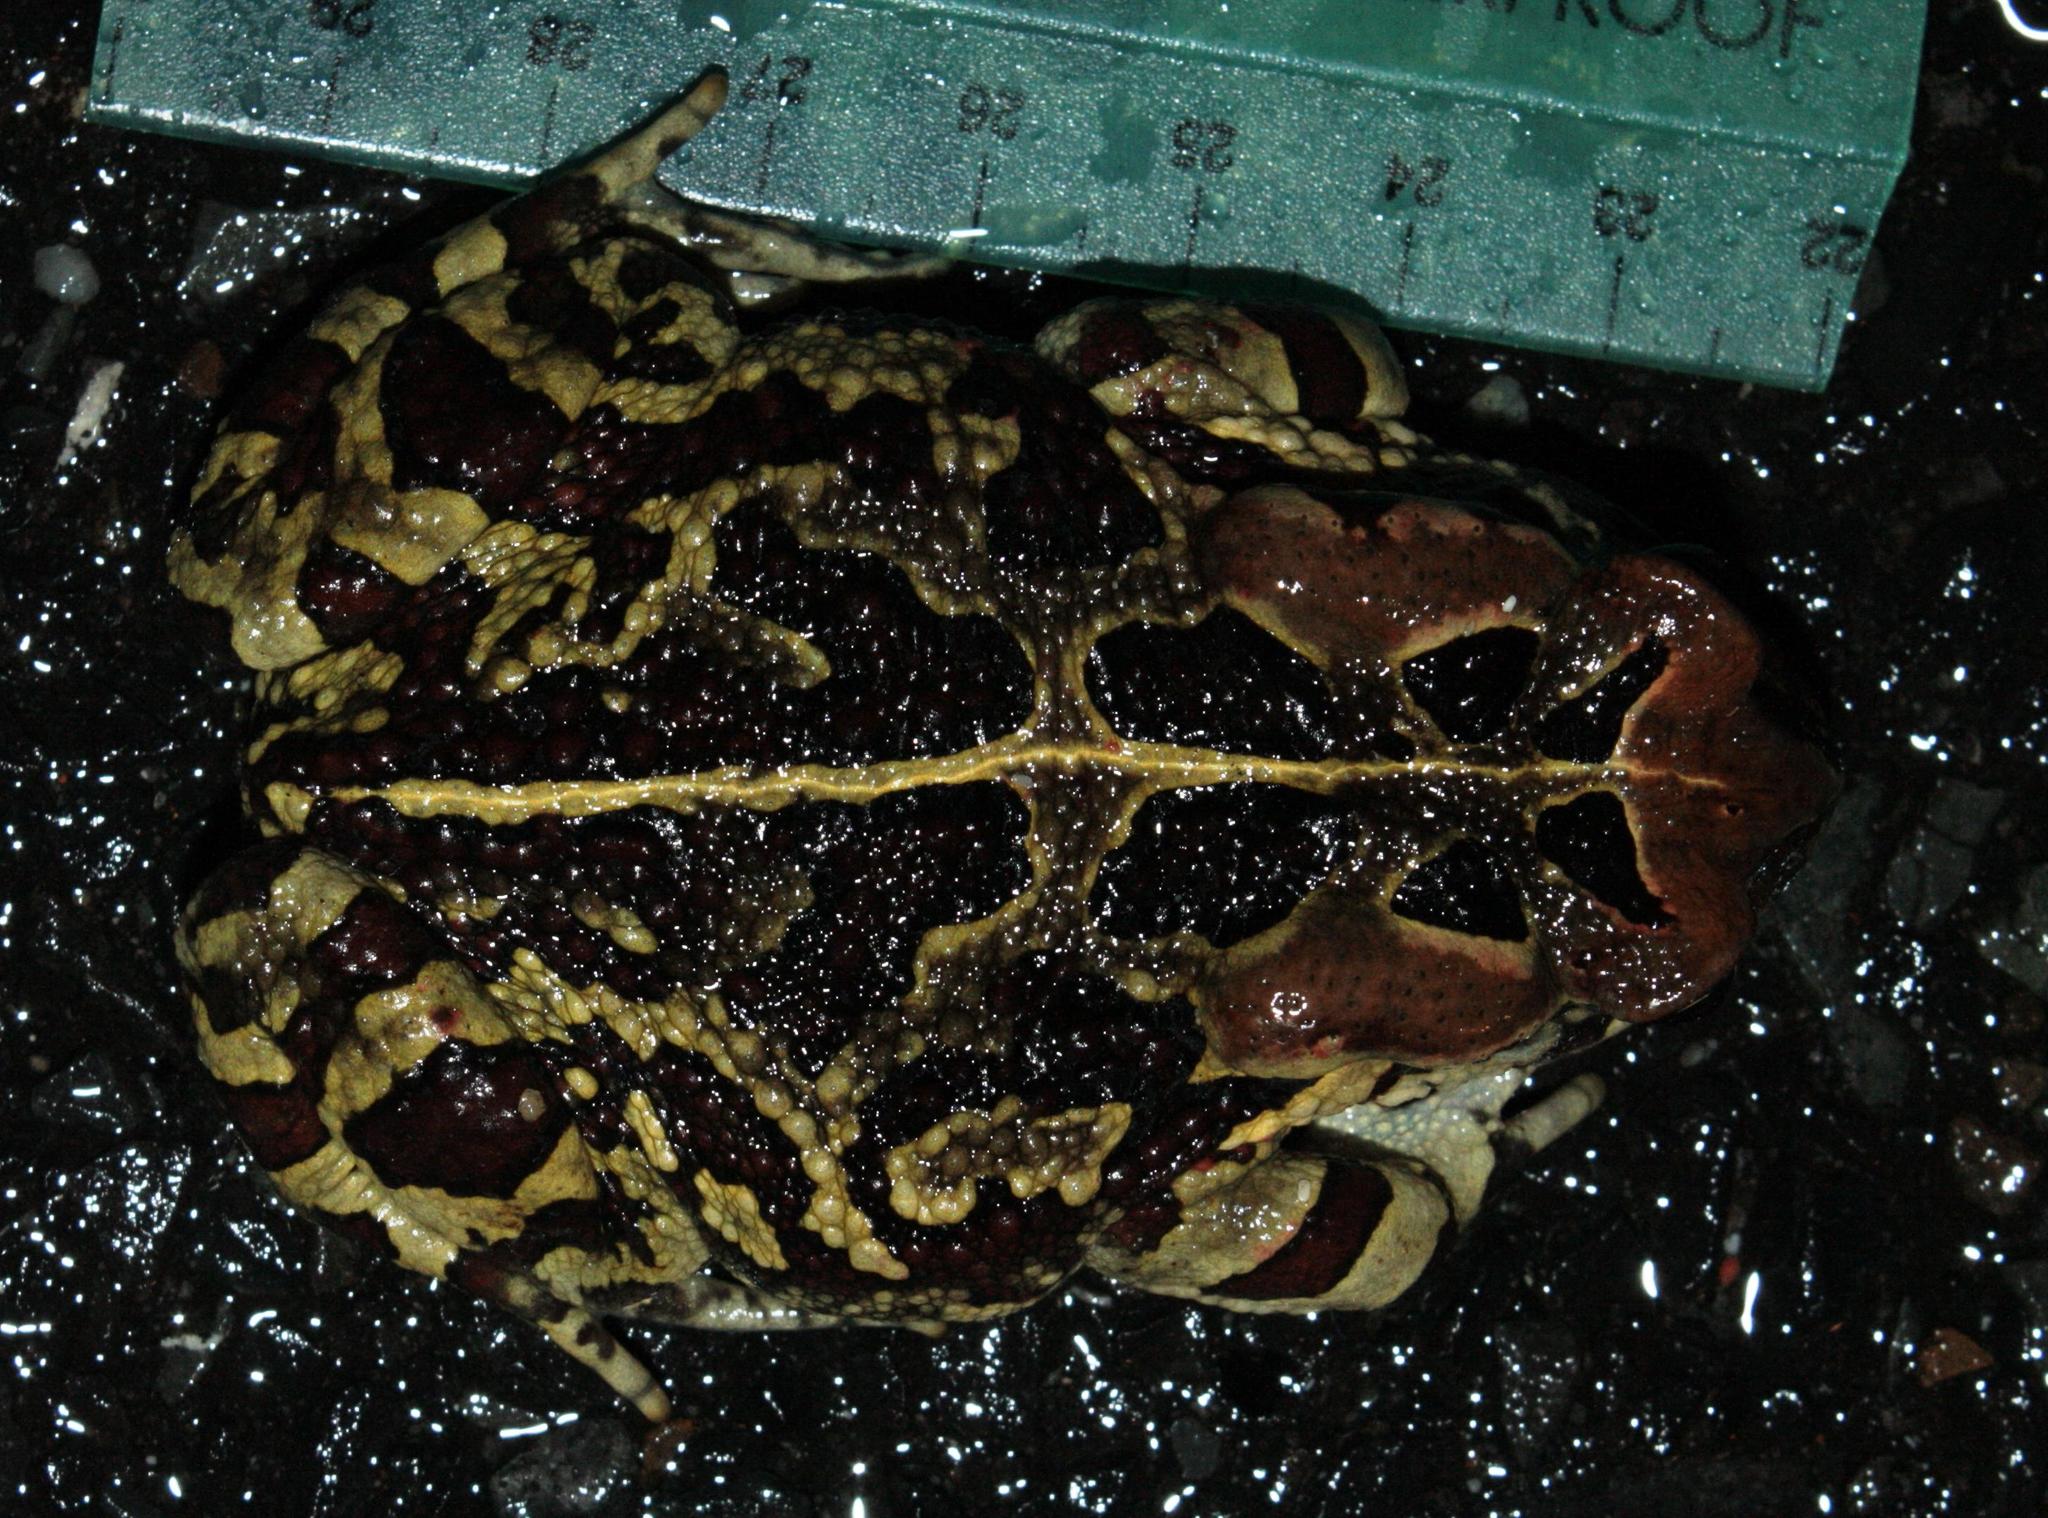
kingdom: Animalia
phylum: Chordata
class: Amphibia
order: Anura
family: Bufonidae
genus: Sclerophrys
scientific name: Sclerophrys pantherina
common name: Panther toad
